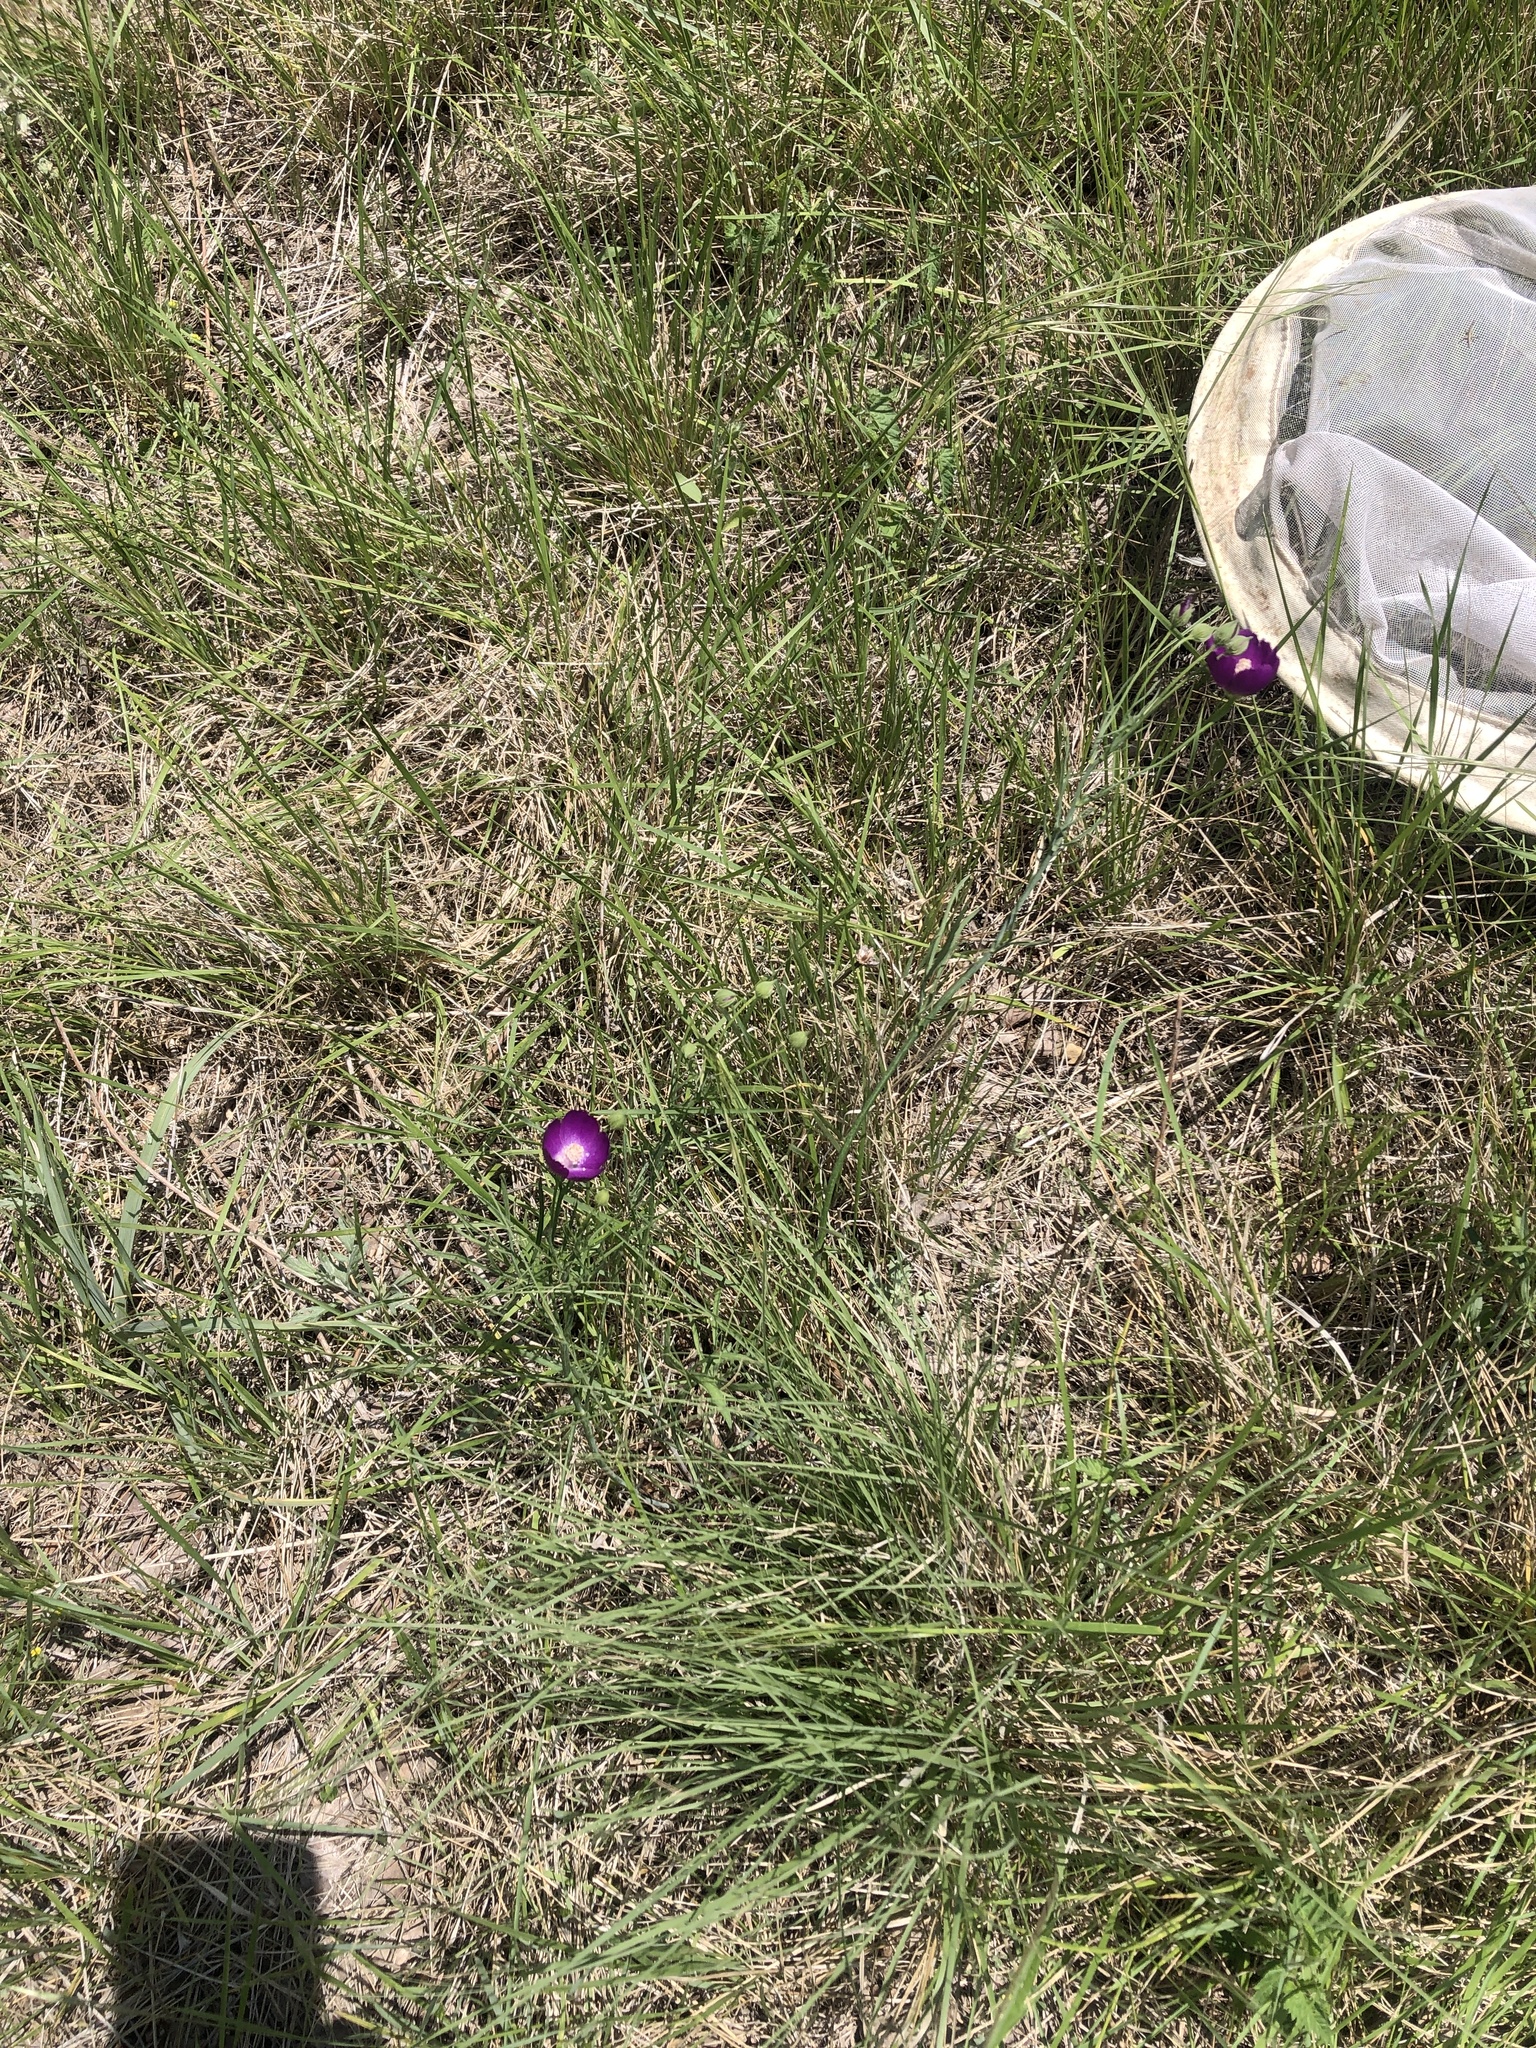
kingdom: Plantae
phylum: Tracheophyta
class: Magnoliopsida
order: Malvales
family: Malvaceae
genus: Callirhoe
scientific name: Callirhoe pedata
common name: Finger poppy-mallow
